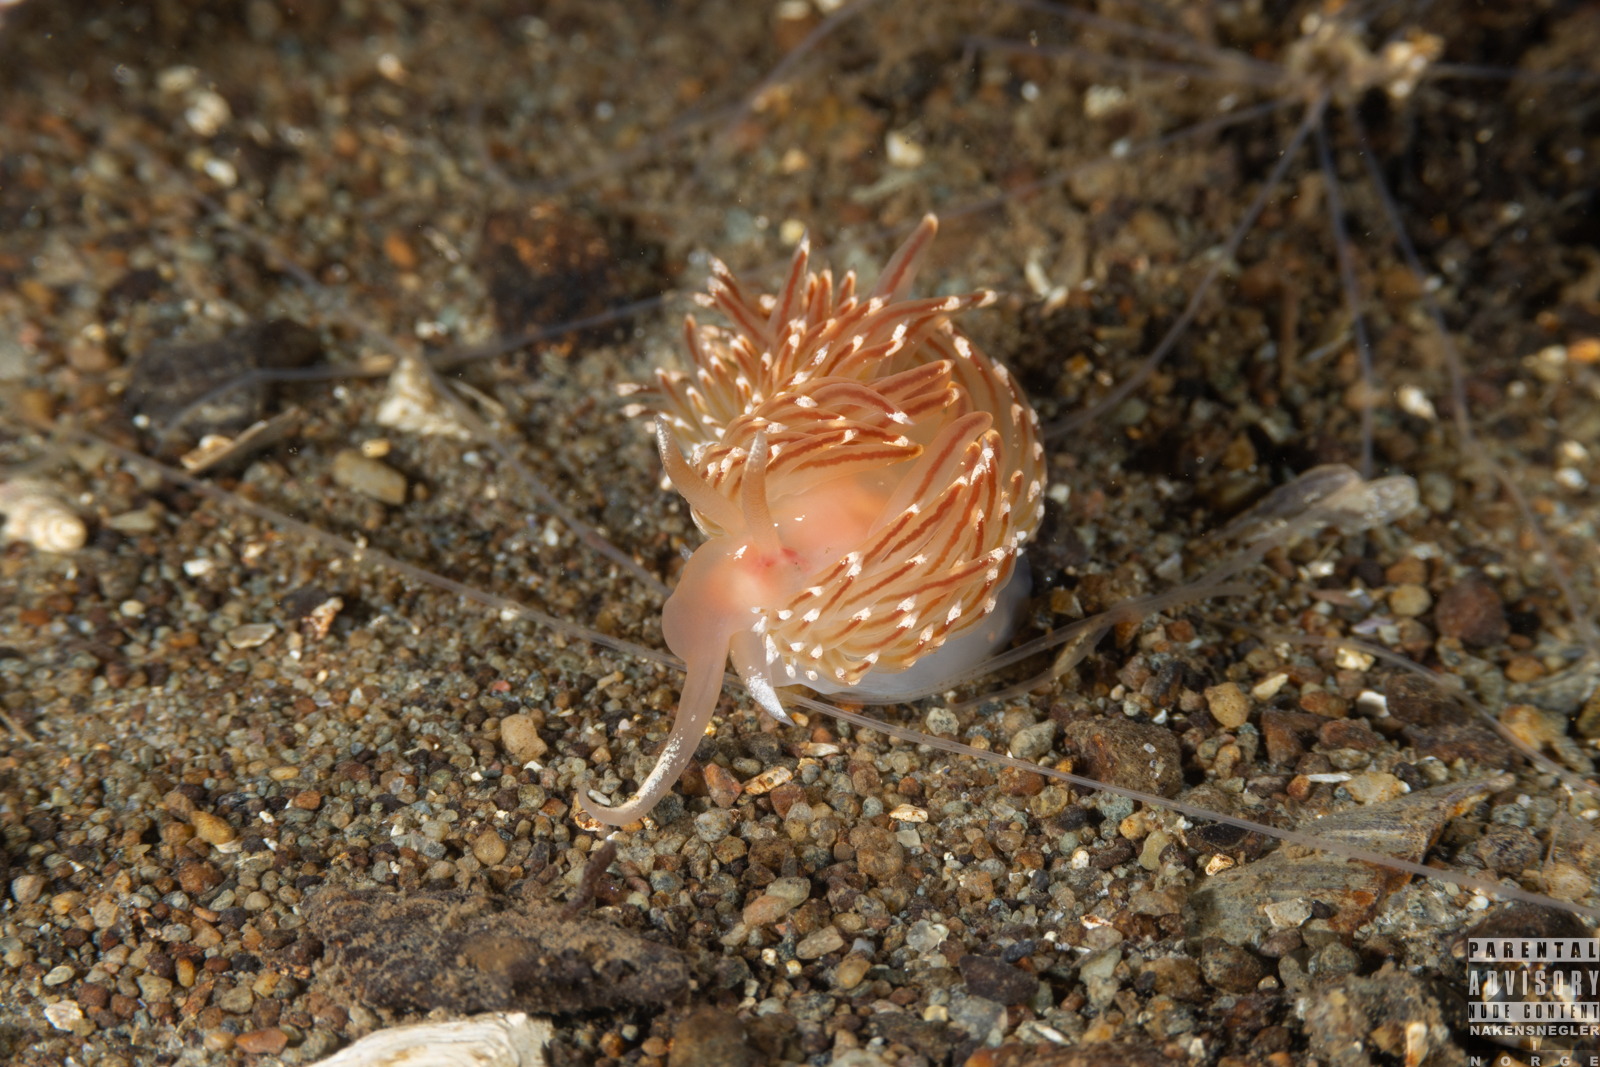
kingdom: Animalia
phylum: Mollusca
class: Gastropoda
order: Nudibranchia
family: Facelinidae
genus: Facelina
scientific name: Facelina bostoniensis
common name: Boston facelina
